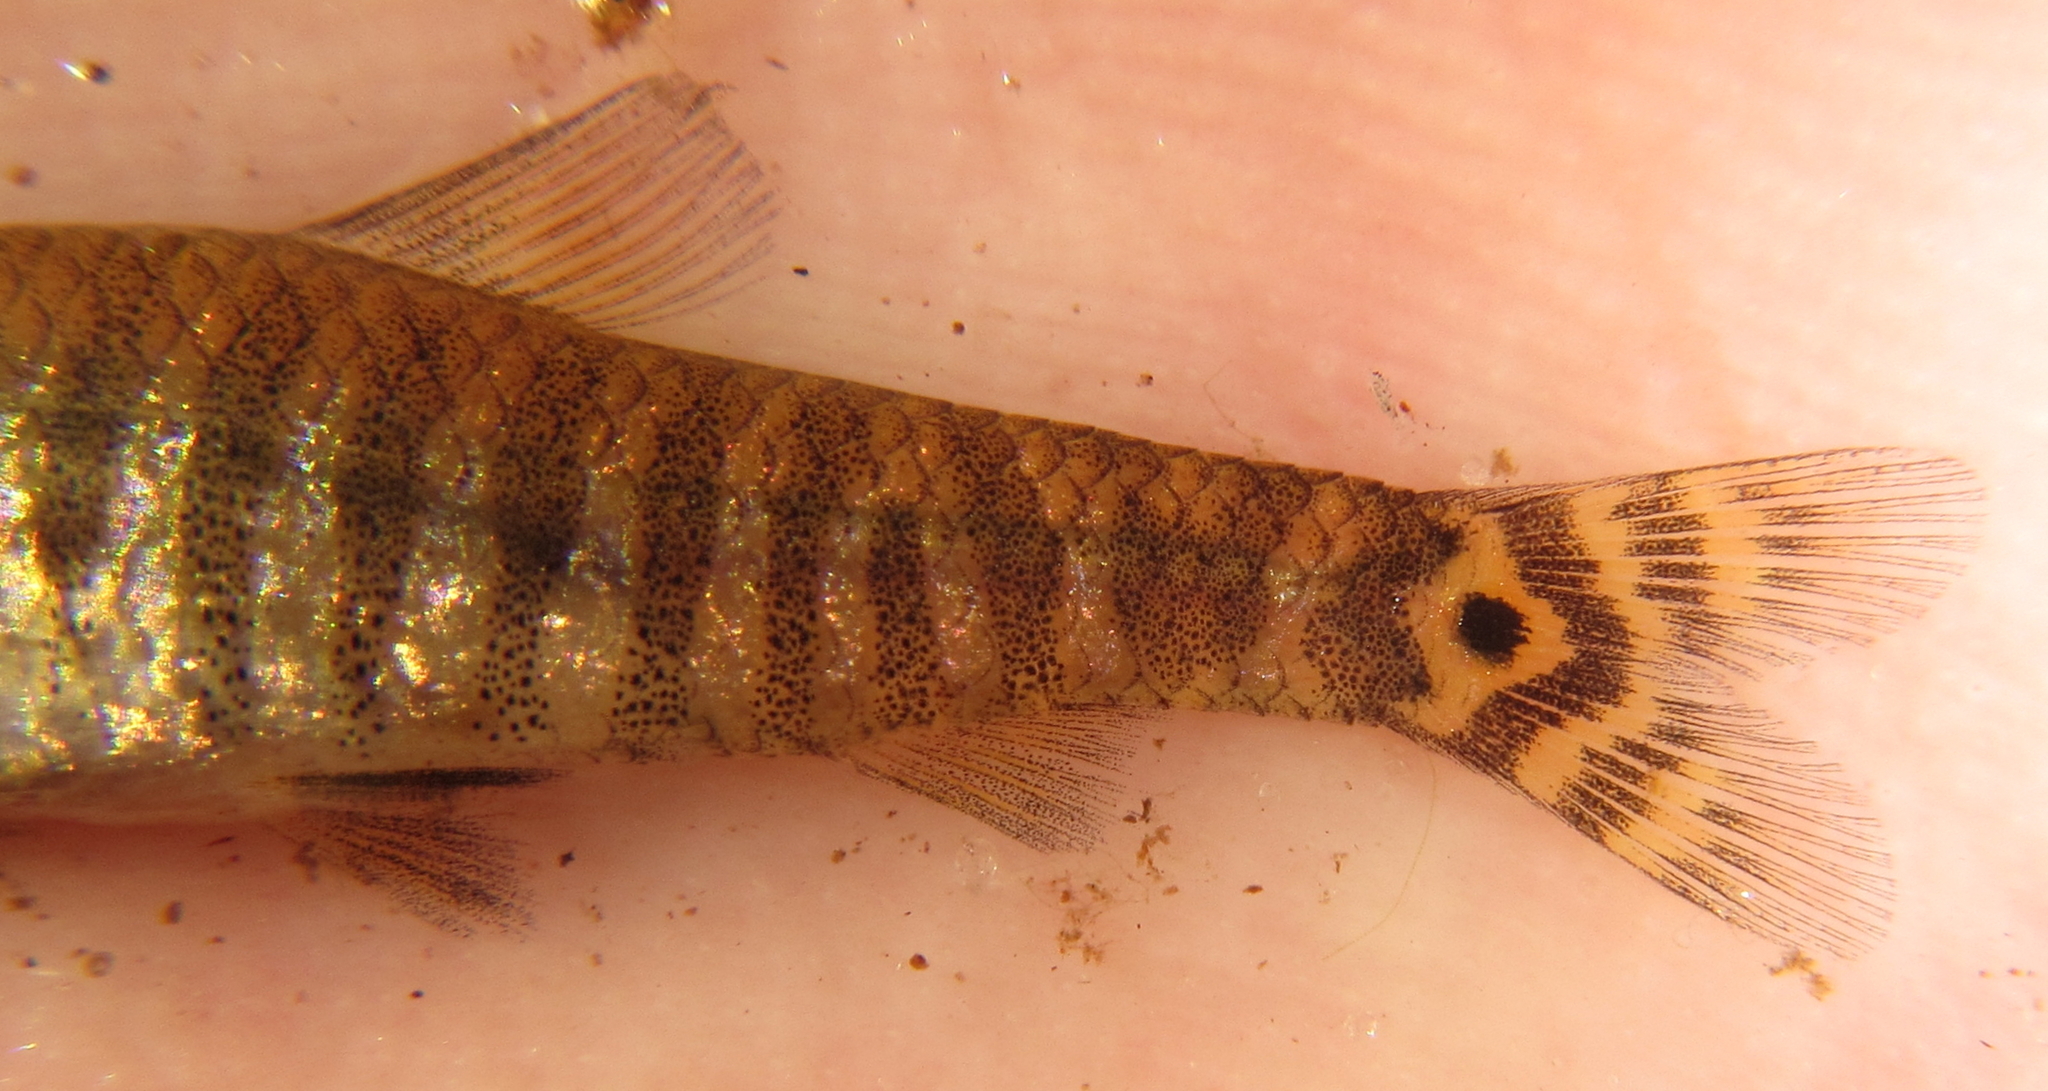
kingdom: Animalia
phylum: Chordata
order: Characiformes
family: Distichodontidae
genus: Nannocharax
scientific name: Nannocharax machadoi
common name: Dwarf citharine
